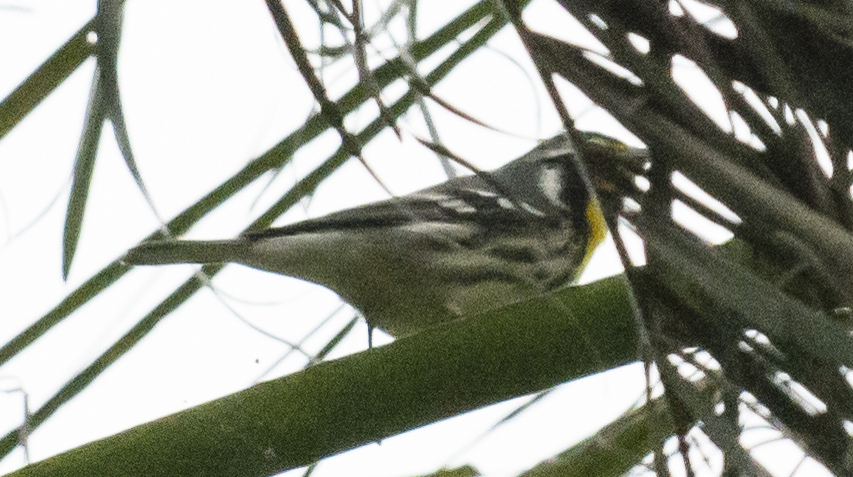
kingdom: Animalia
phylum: Chordata
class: Aves
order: Passeriformes
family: Parulidae
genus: Setophaga
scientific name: Setophaga dominica
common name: Yellow-throated warbler
